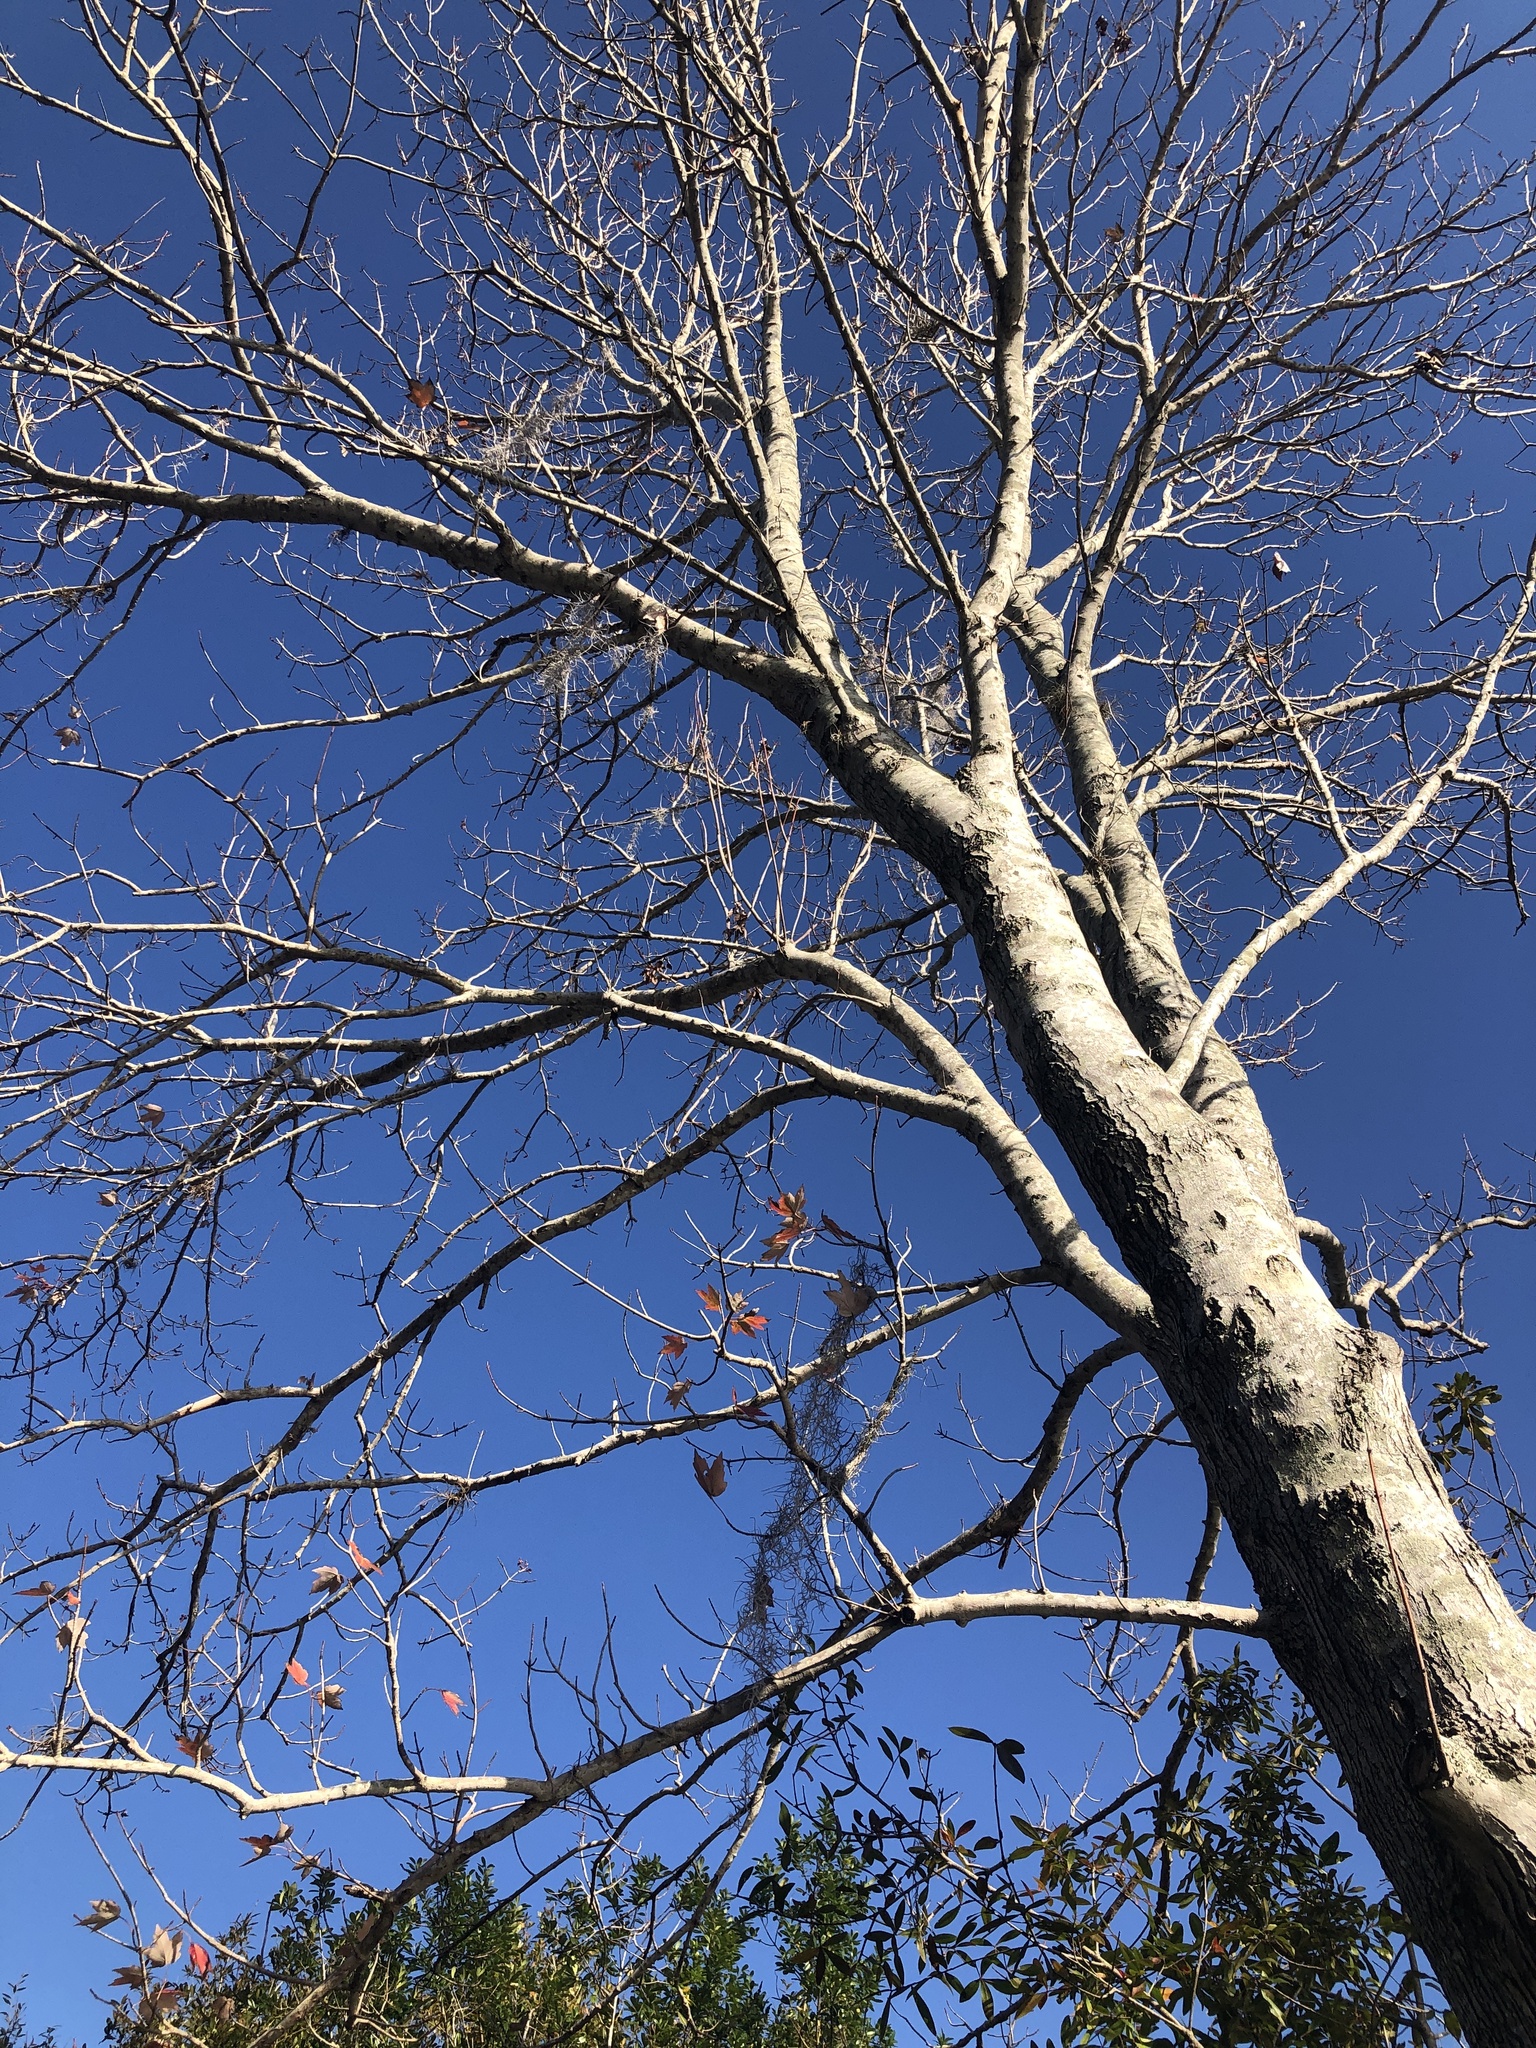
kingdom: Plantae
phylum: Tracheophyta
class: Magnoliopsida
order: Sapindales
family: Sapindaceae
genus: Acer
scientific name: Acer rubrum
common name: Red maple
